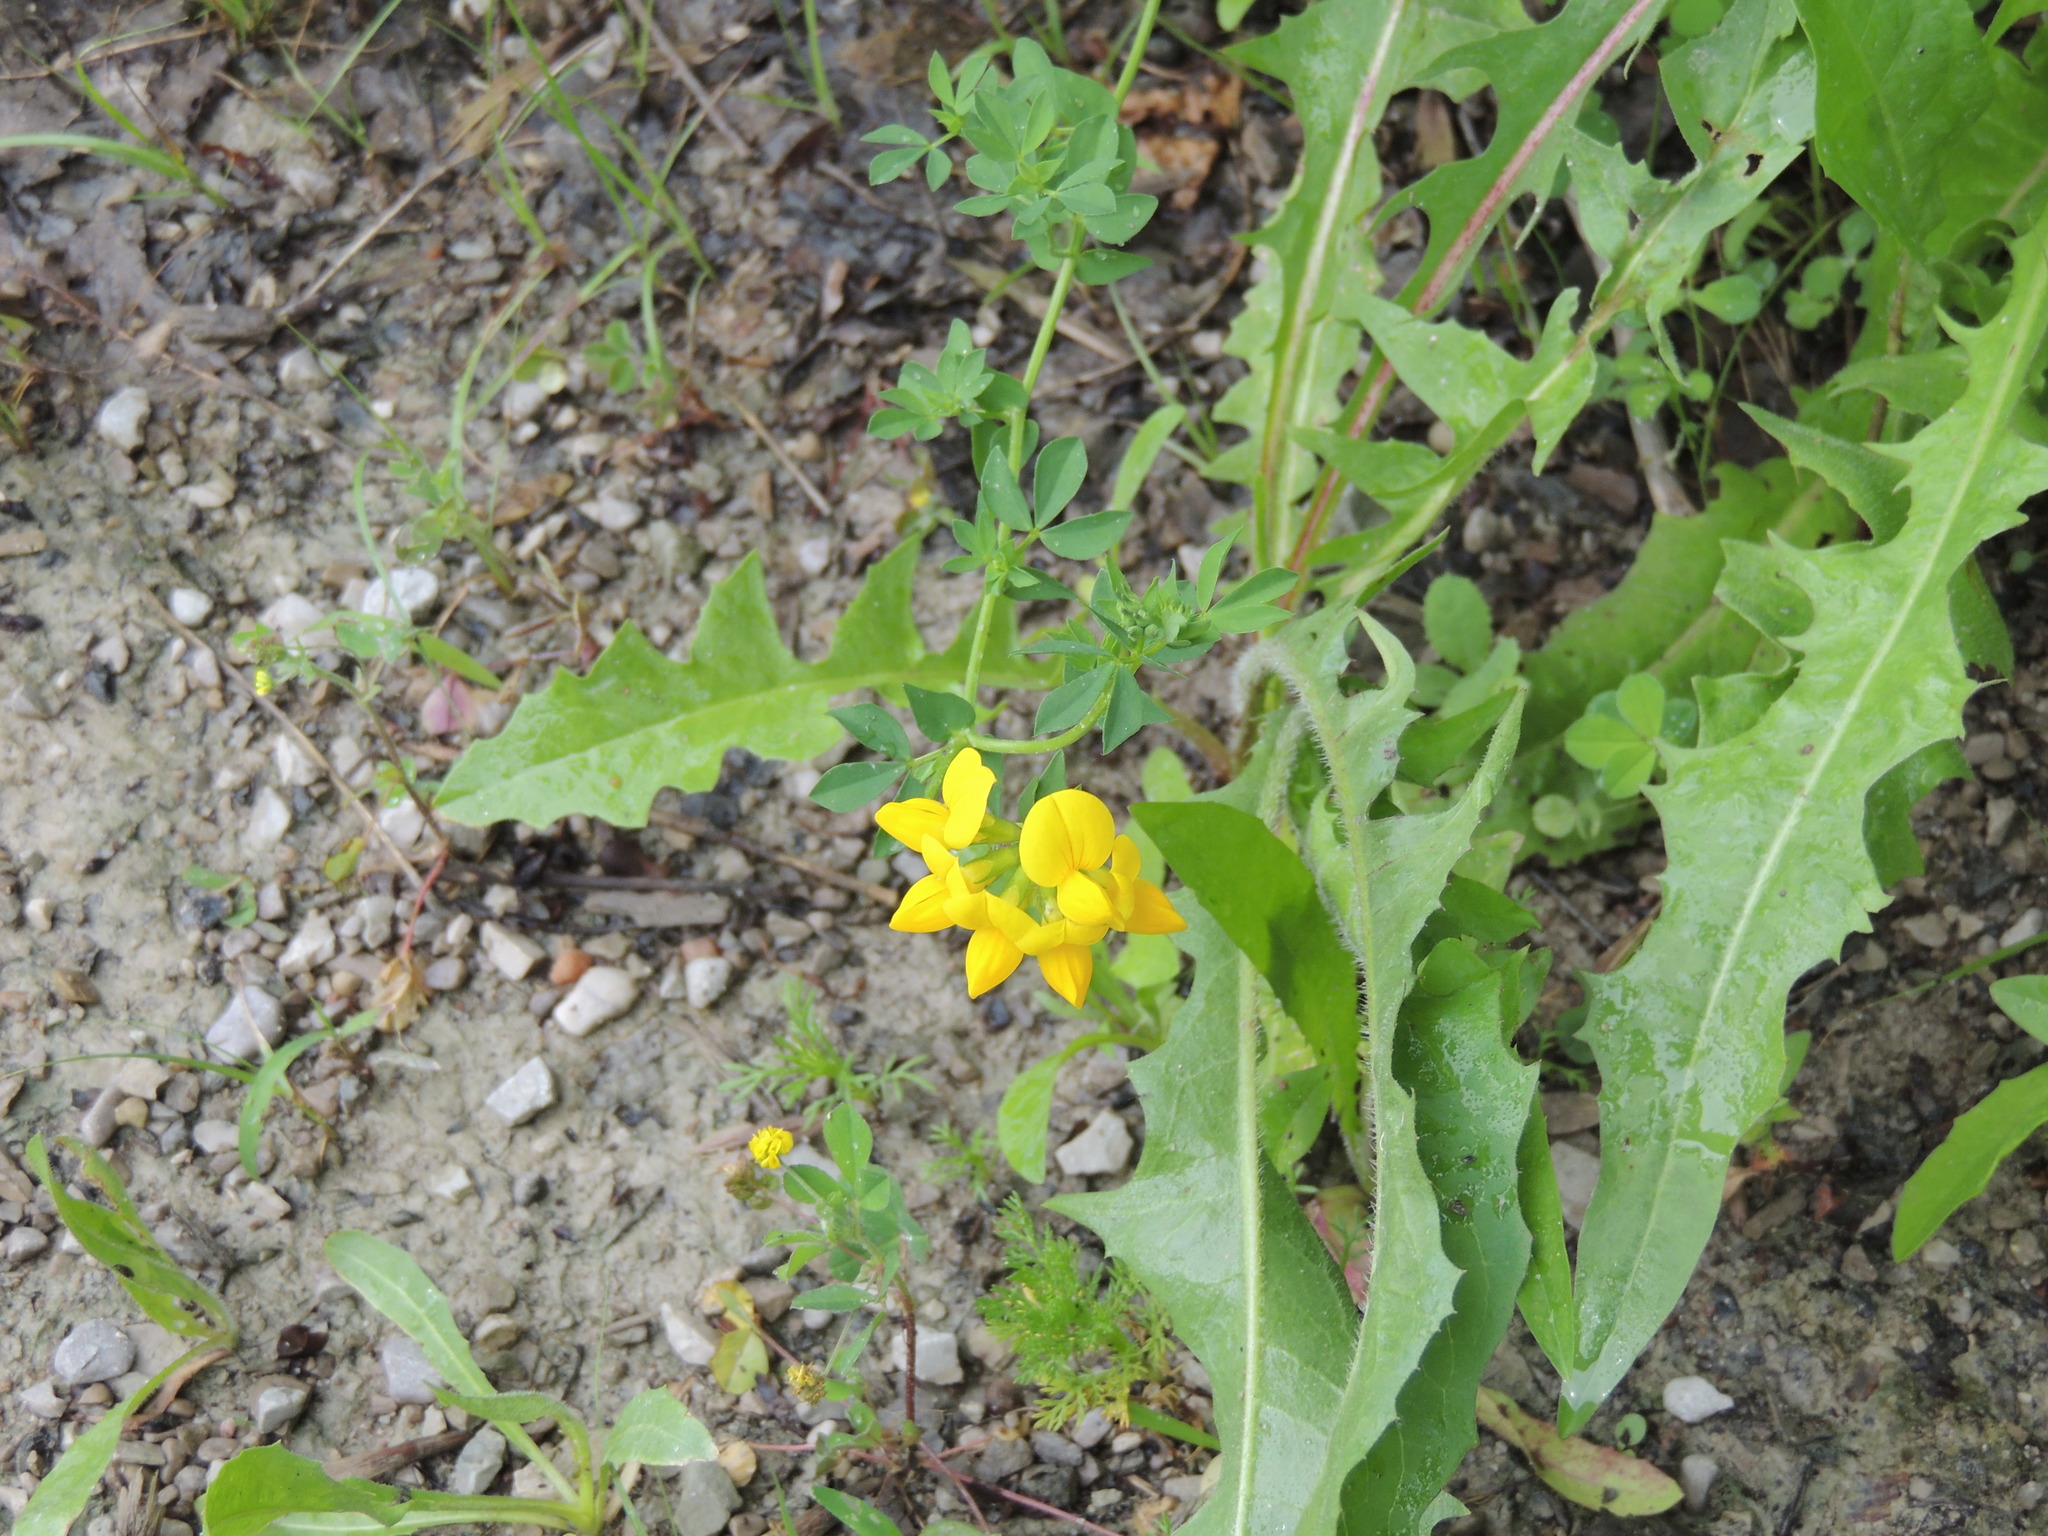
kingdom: Plantae
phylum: Tracheophyta
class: Magnoliopsida
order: Fabales
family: Fabaceae
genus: Lotus
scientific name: Lotus corniculatus
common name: Common bird's-foot-trefoil
